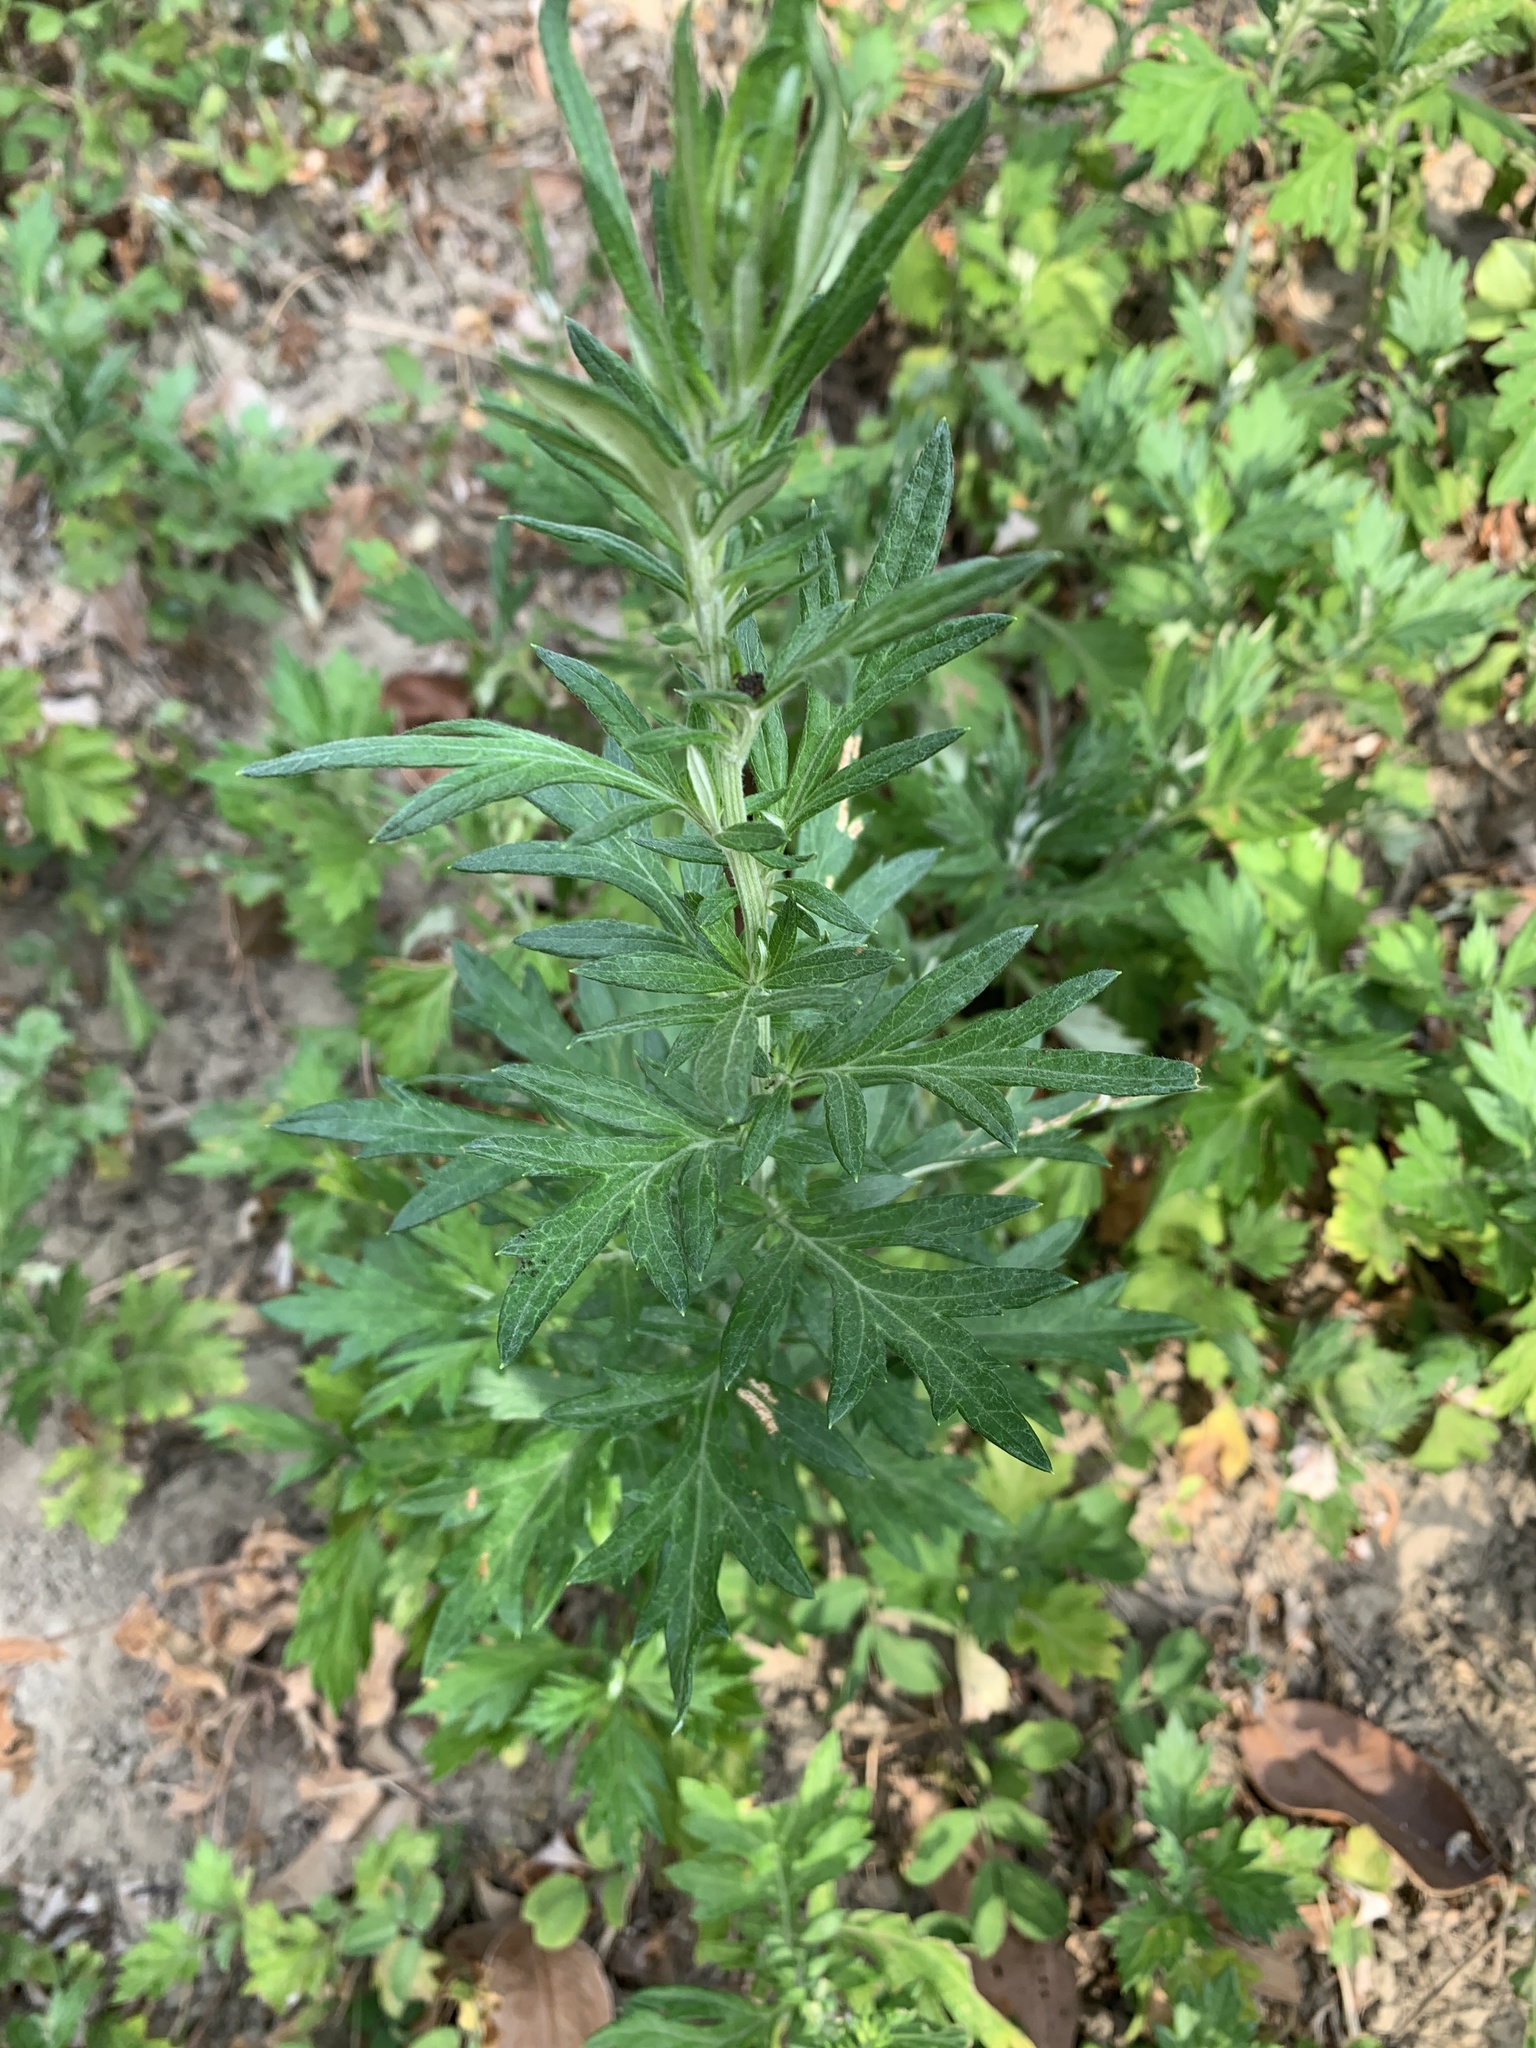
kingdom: Plantae
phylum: Tracheophyta
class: Magnoliopsida
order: Asterales
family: Asteraceae
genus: Artemisia
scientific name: Artemisia indica
